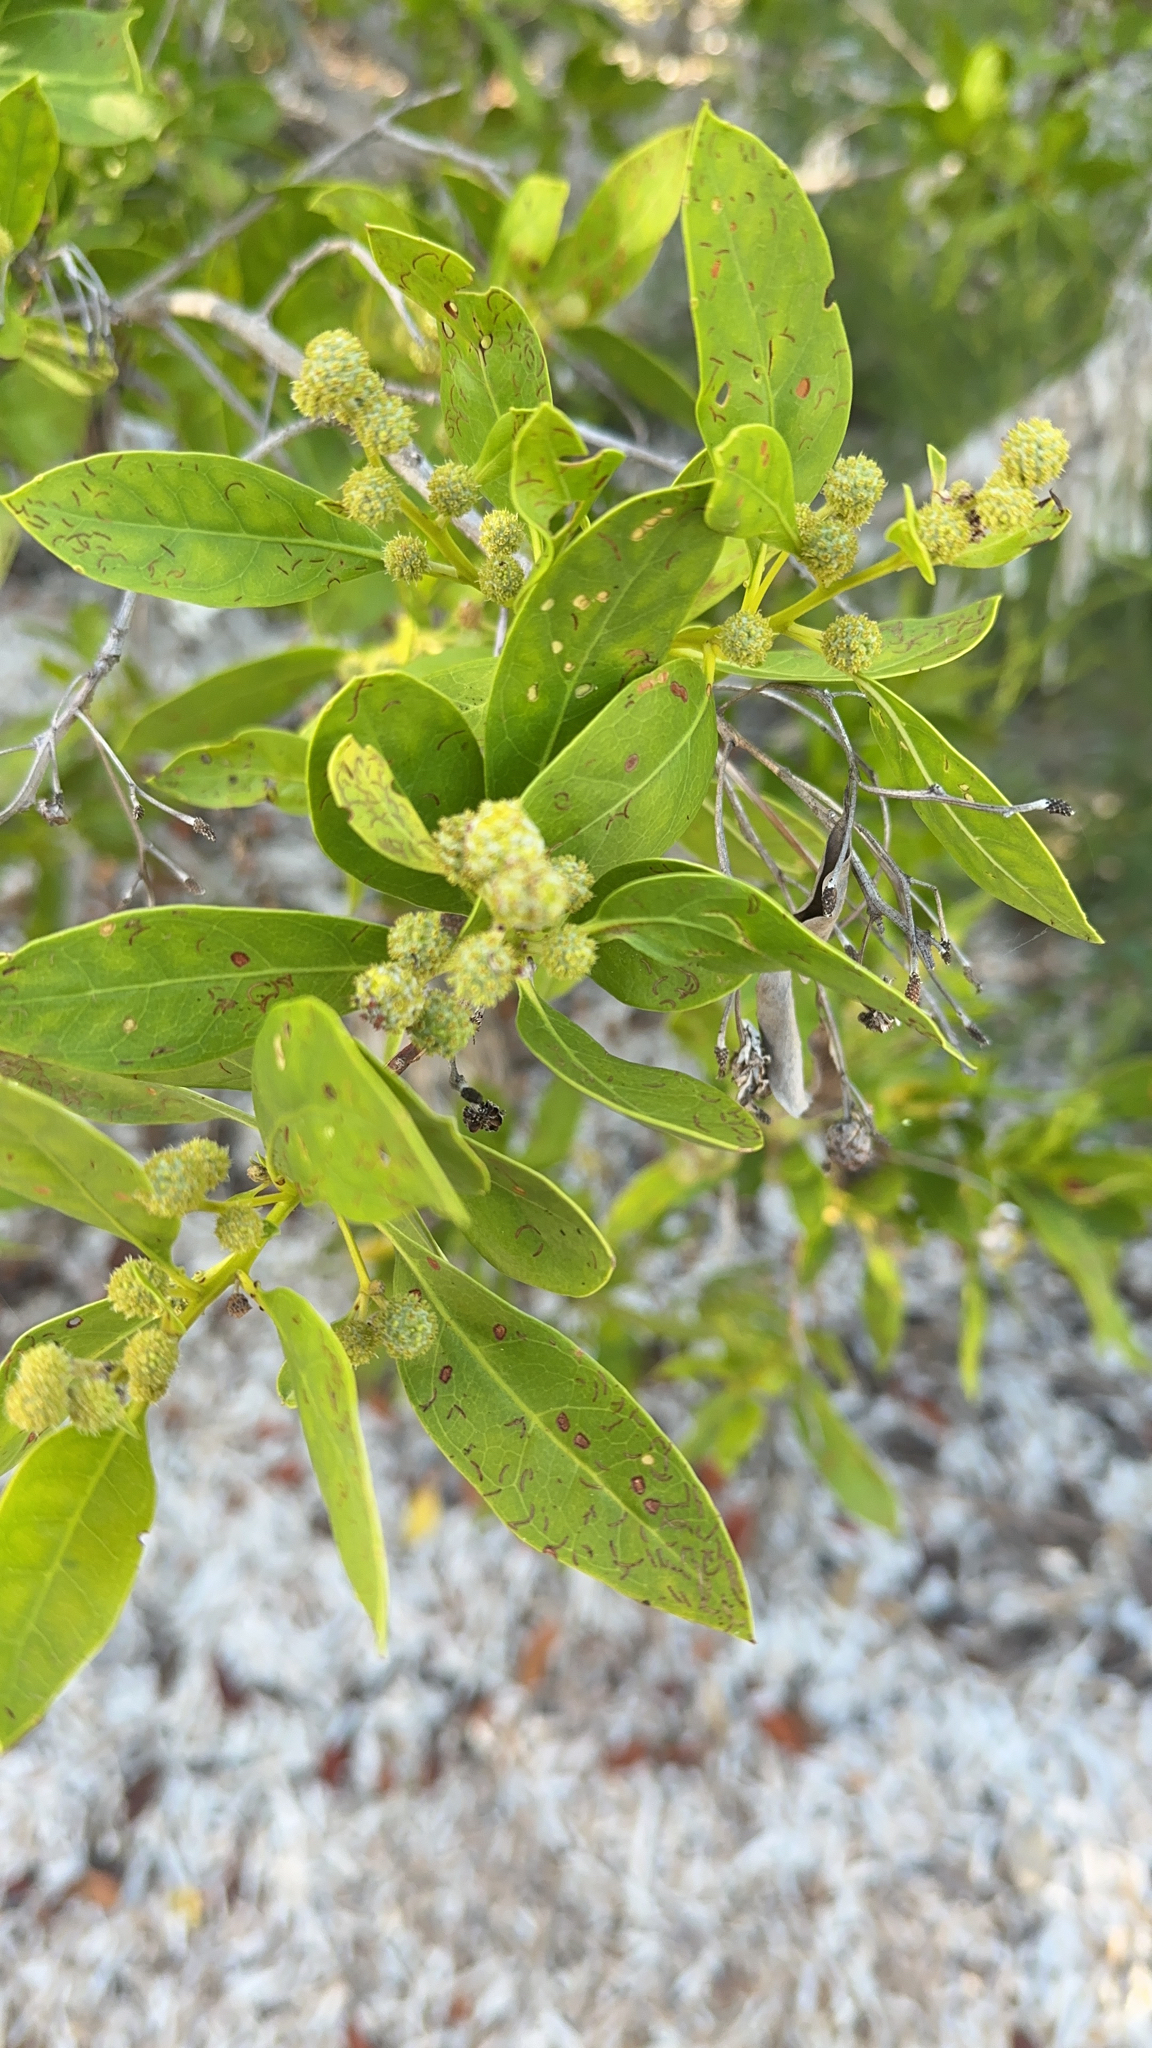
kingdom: Plantae
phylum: Tracheophyta
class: Magnoliopsida
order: Myrtales
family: Combretaceae
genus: Conocarpus
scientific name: Conocarpus erectus
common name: Button mangrove
